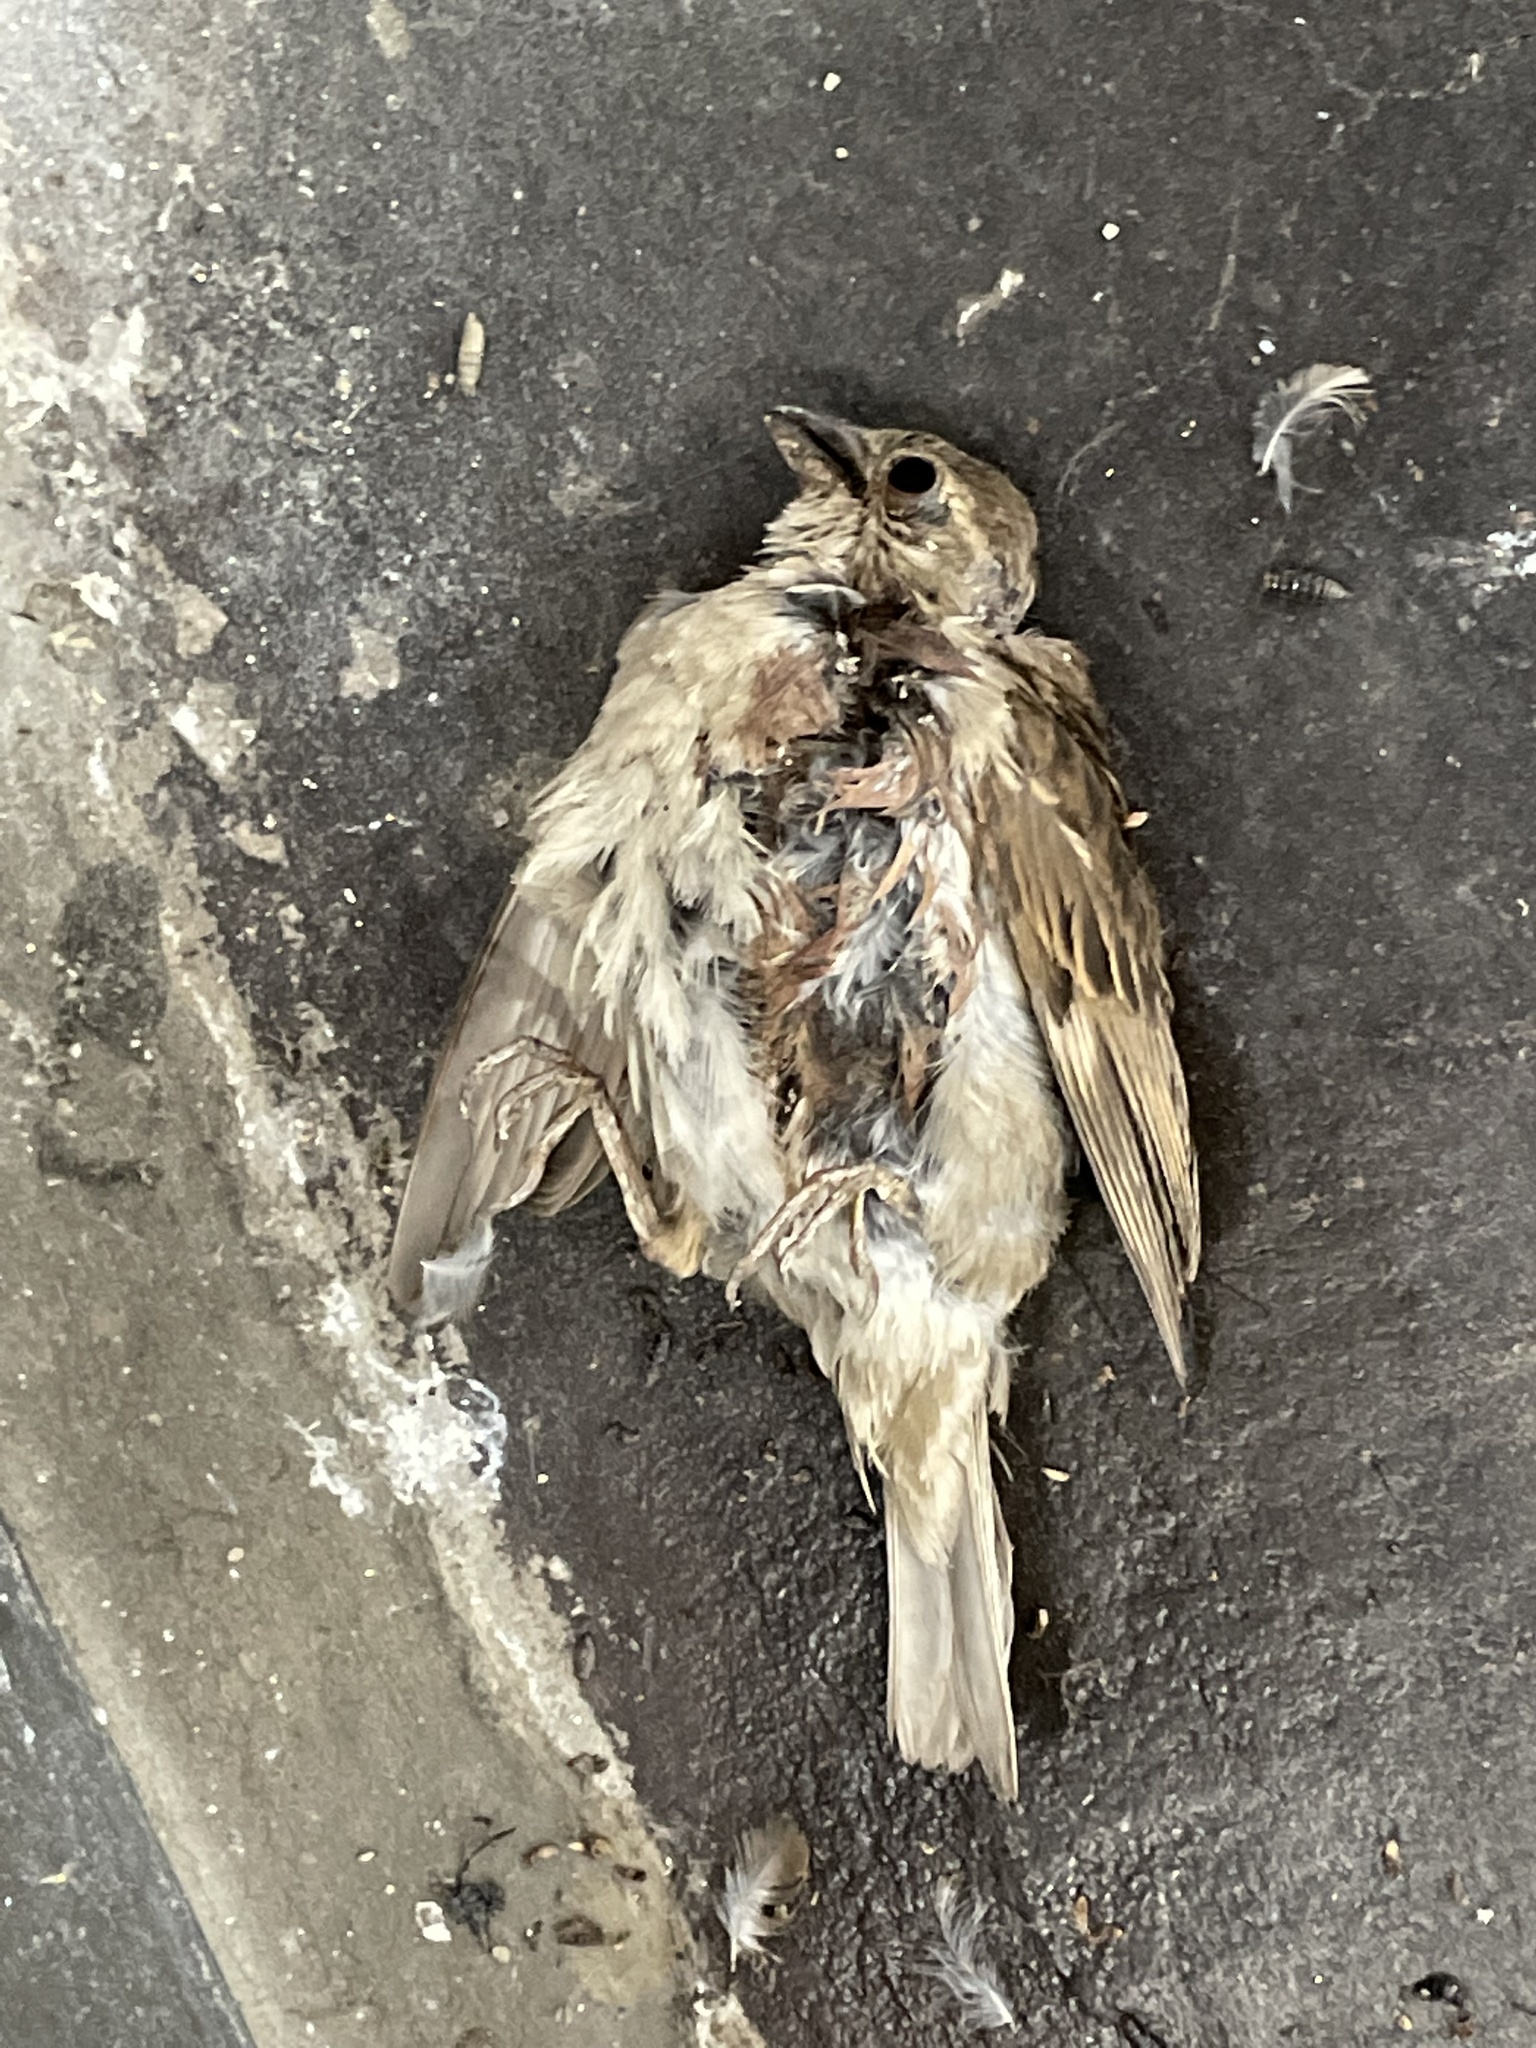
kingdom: Animalia
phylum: Chordata
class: Aves
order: Passeriformes
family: Passeridae
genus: Passer
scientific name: Passer domesticus
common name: House sparrow
